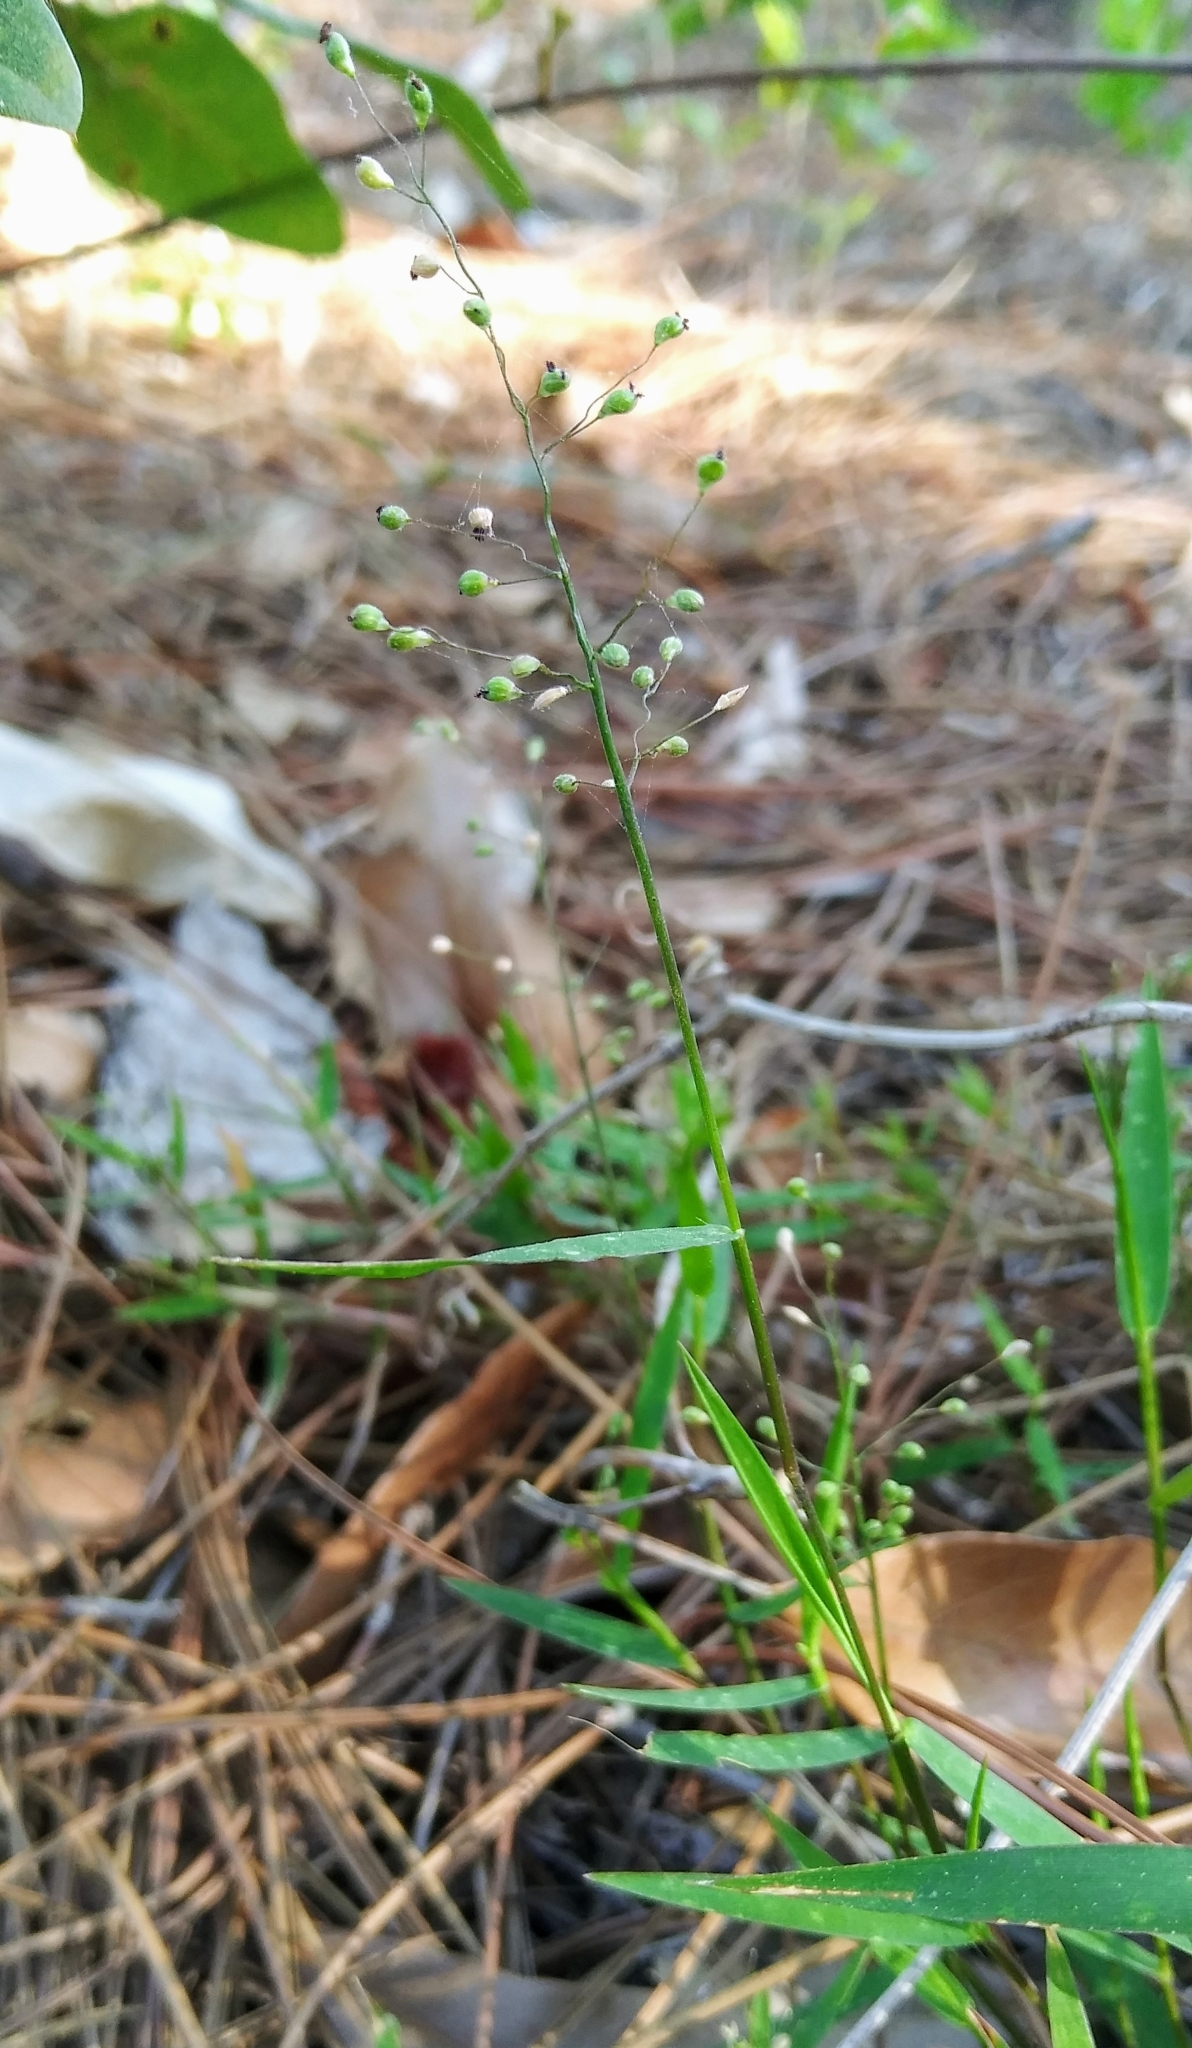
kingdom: Plantae
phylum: Tracheophyta
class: Liliopsida
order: Poales
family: Poaceae
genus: Dichanthelium
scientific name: Dichanthelium portoricense
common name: American panicgrass
